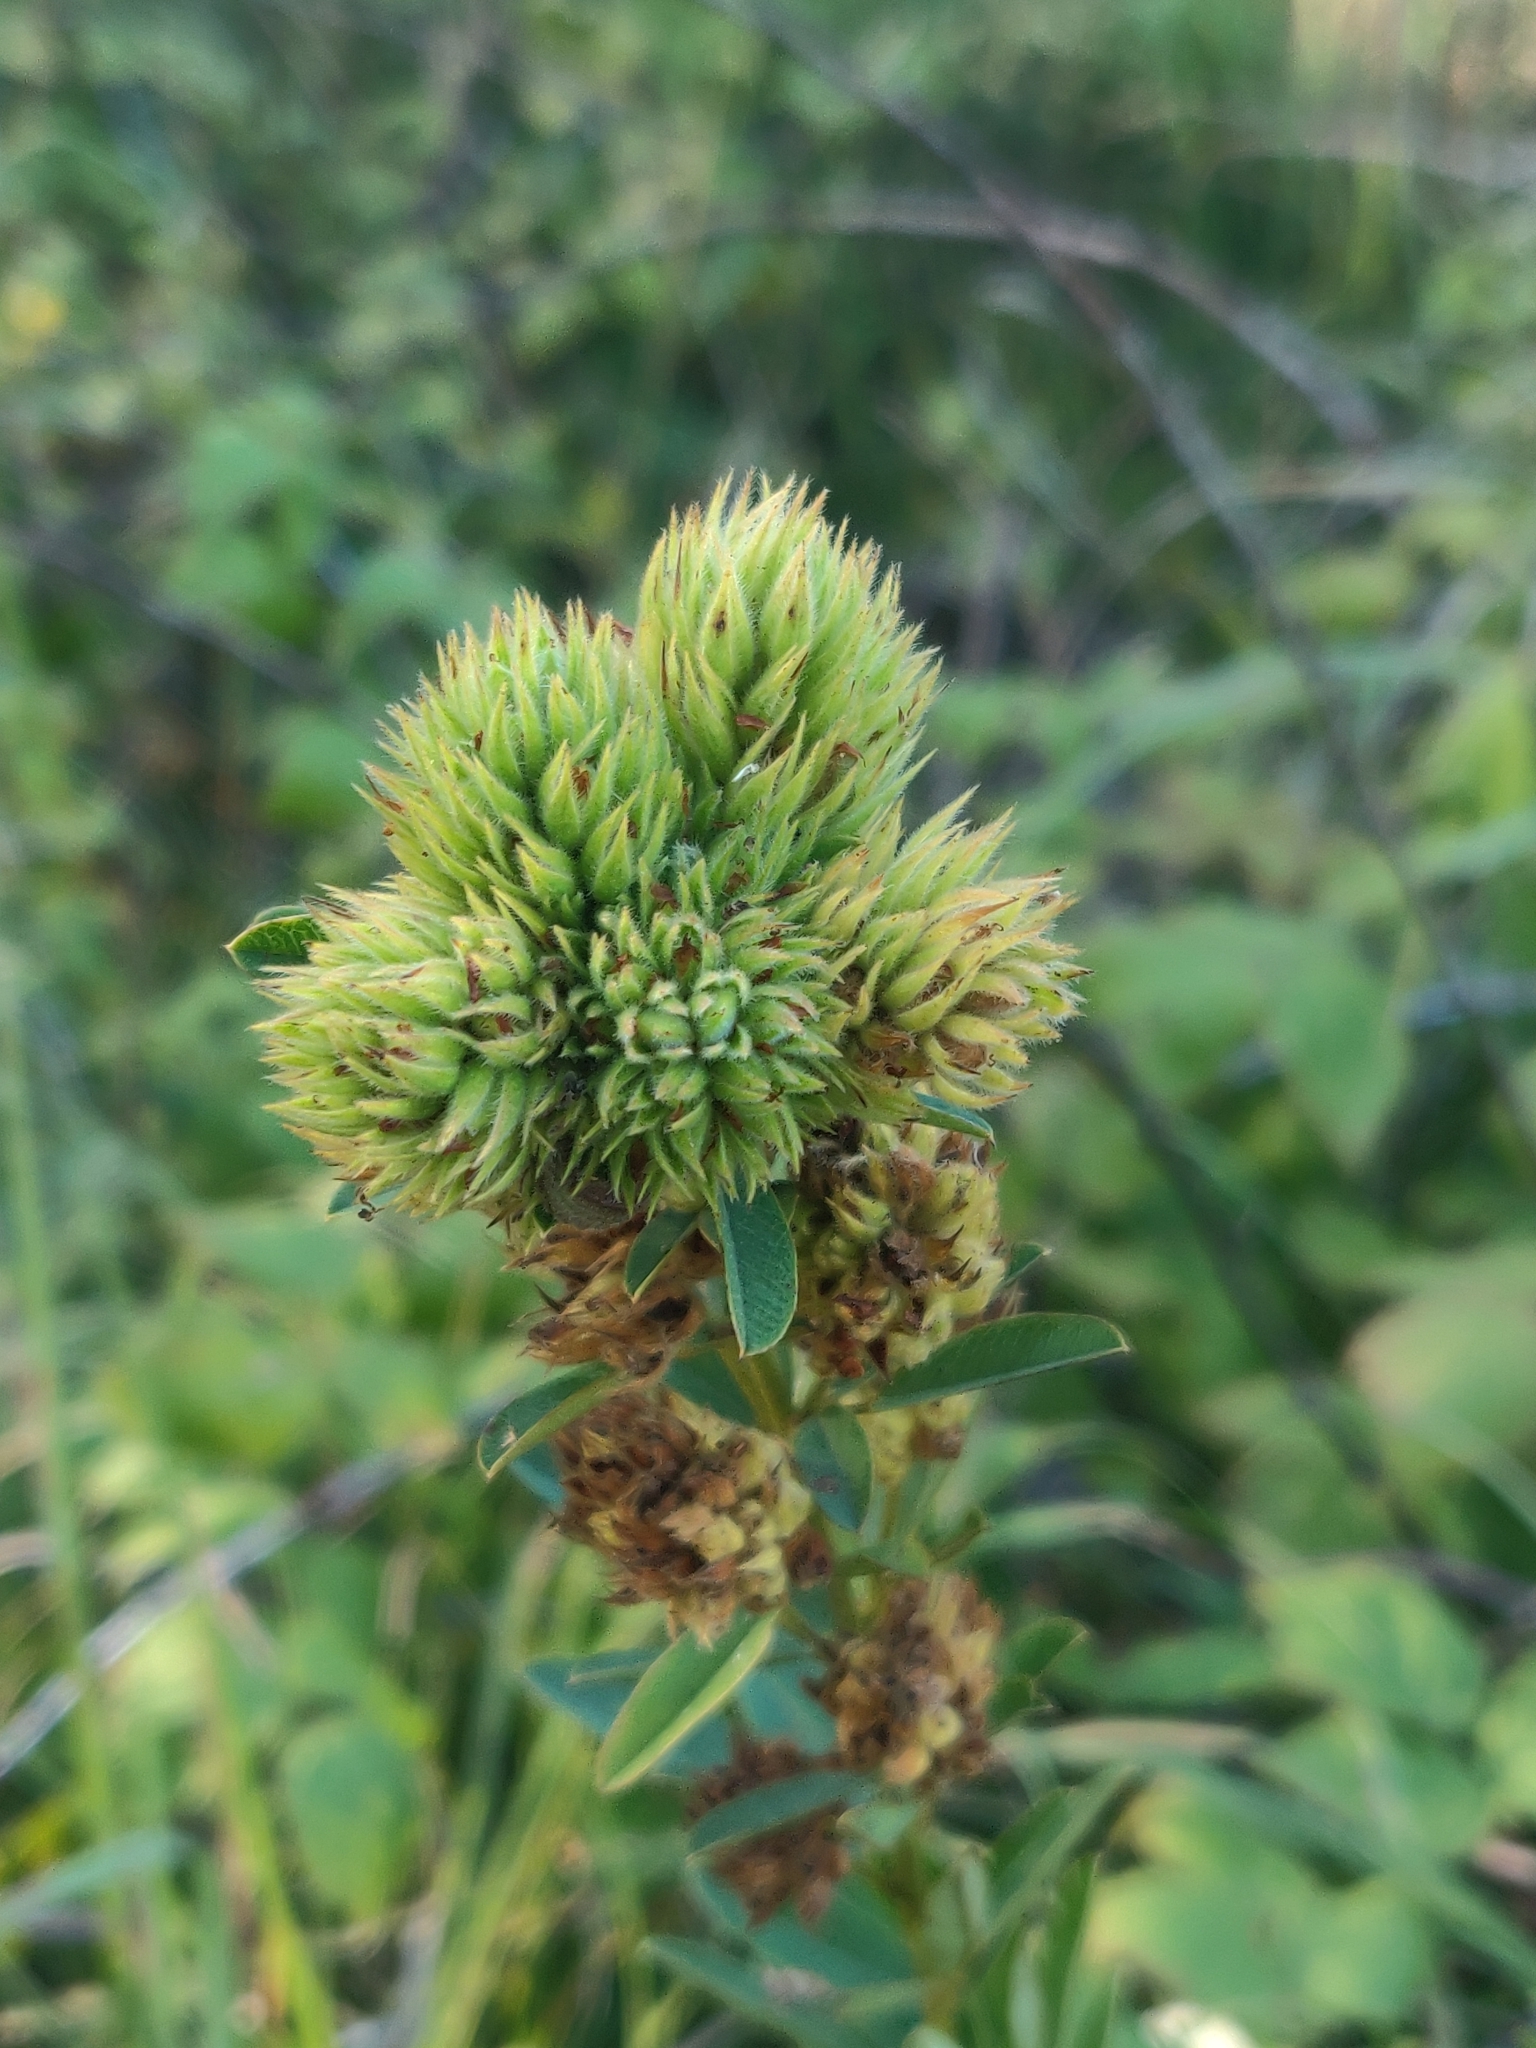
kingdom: Plantae
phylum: Tracheophyta
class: Magnoliopsida
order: Fabales
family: Fabaceae
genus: Lespedeza
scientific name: Lespedeza capitata
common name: Dusty clover
